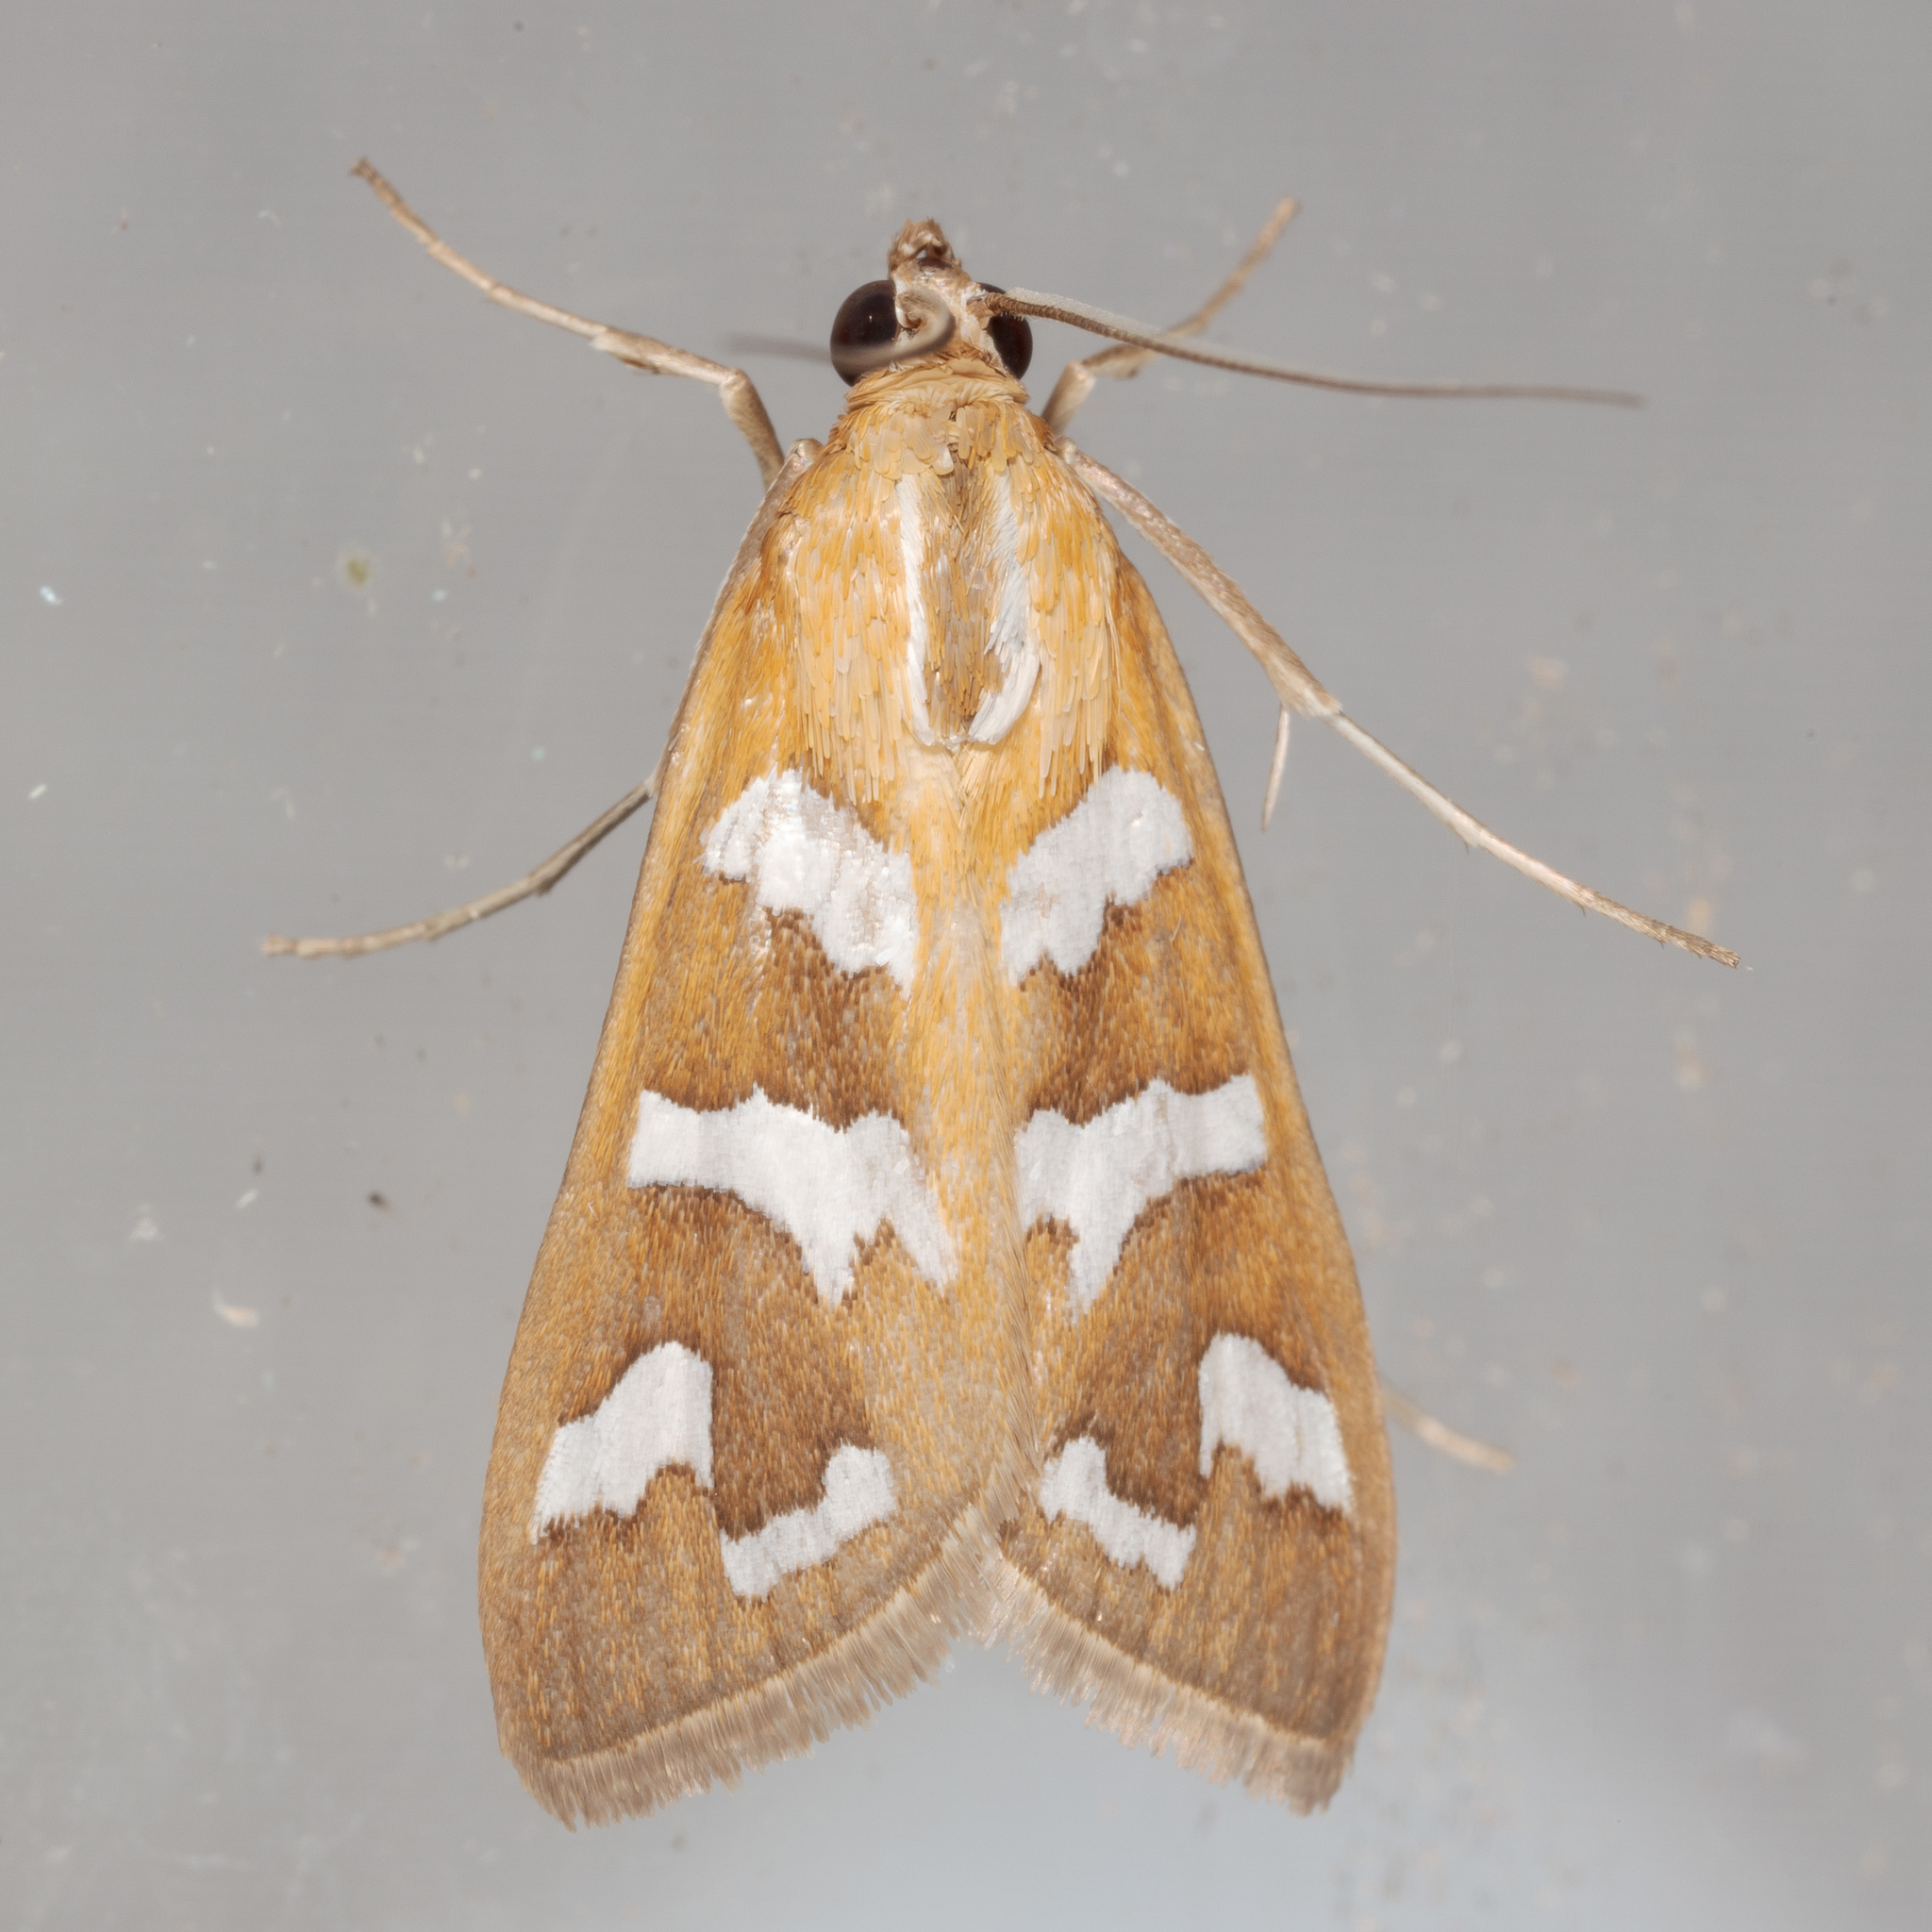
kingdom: Animalia
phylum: Arthropoda
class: Insecta
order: Lepidoptera
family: Crambidae
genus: Diastictis
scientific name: Diastictis fracturalis
